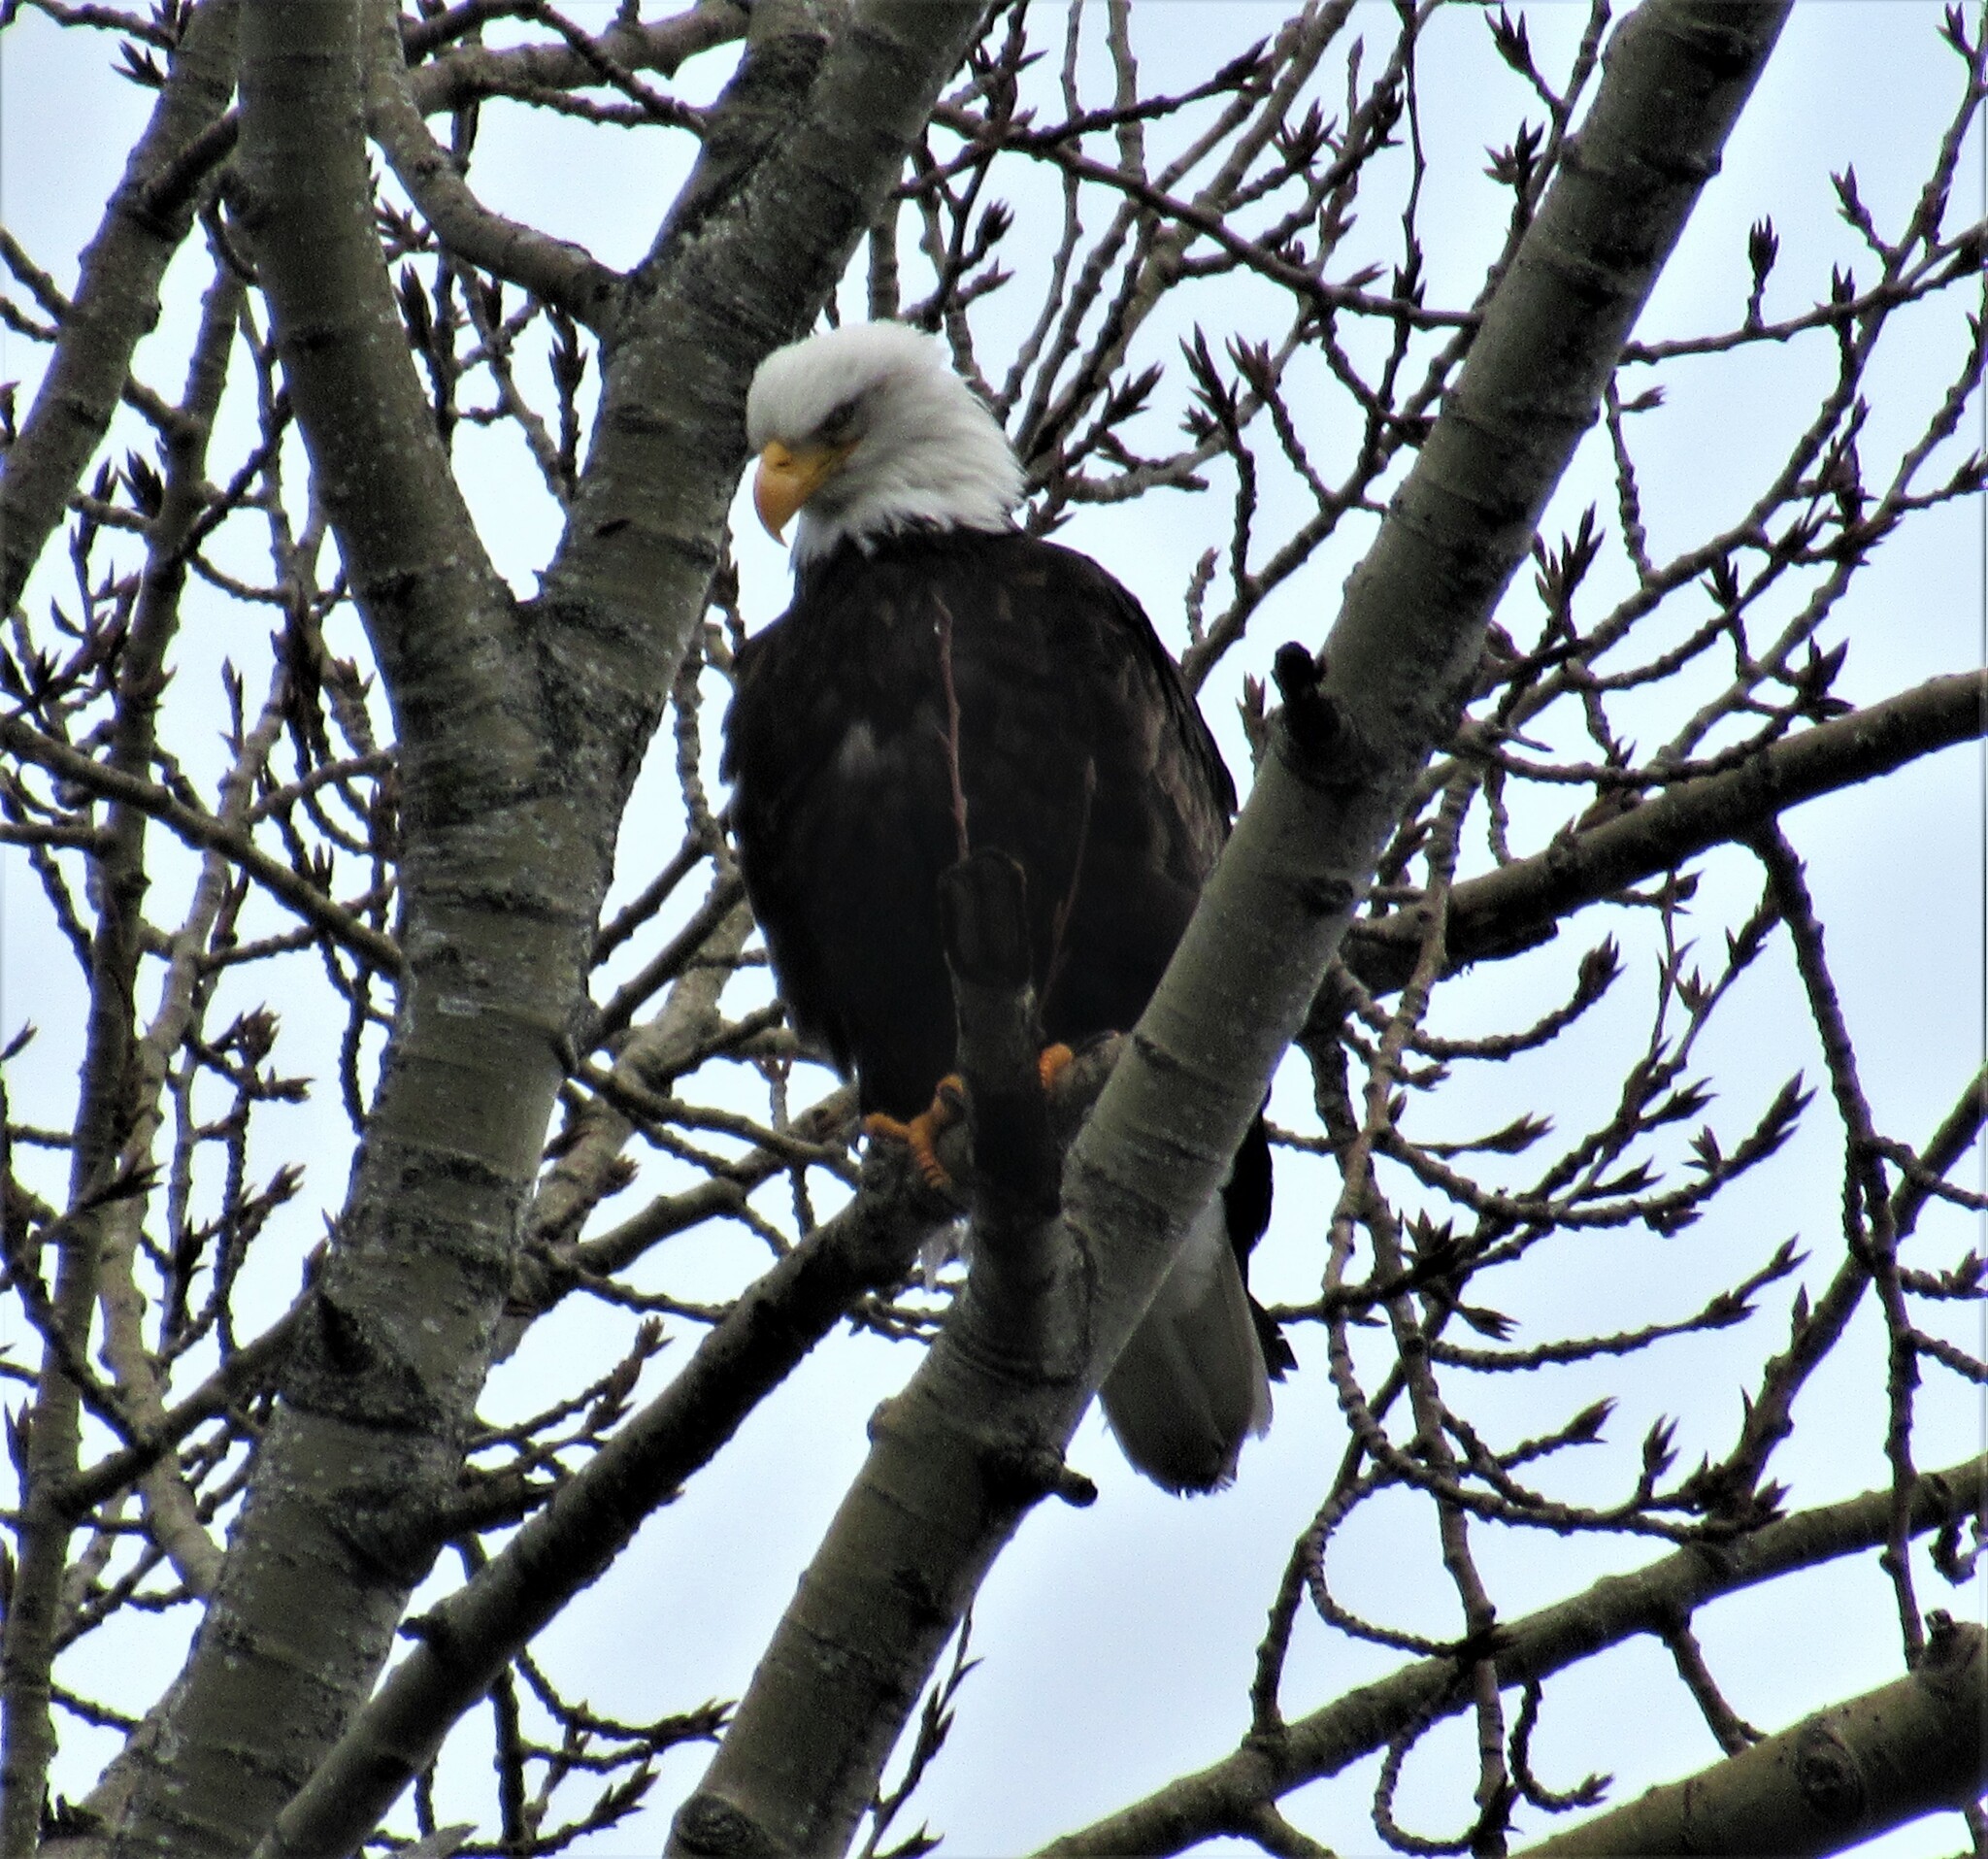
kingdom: Animalia
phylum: Chordata
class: Aves
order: Accipitriformes
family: Accipitridae
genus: Haliaeetus
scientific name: Haliaeetus leucocephalus
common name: Bald eagle
